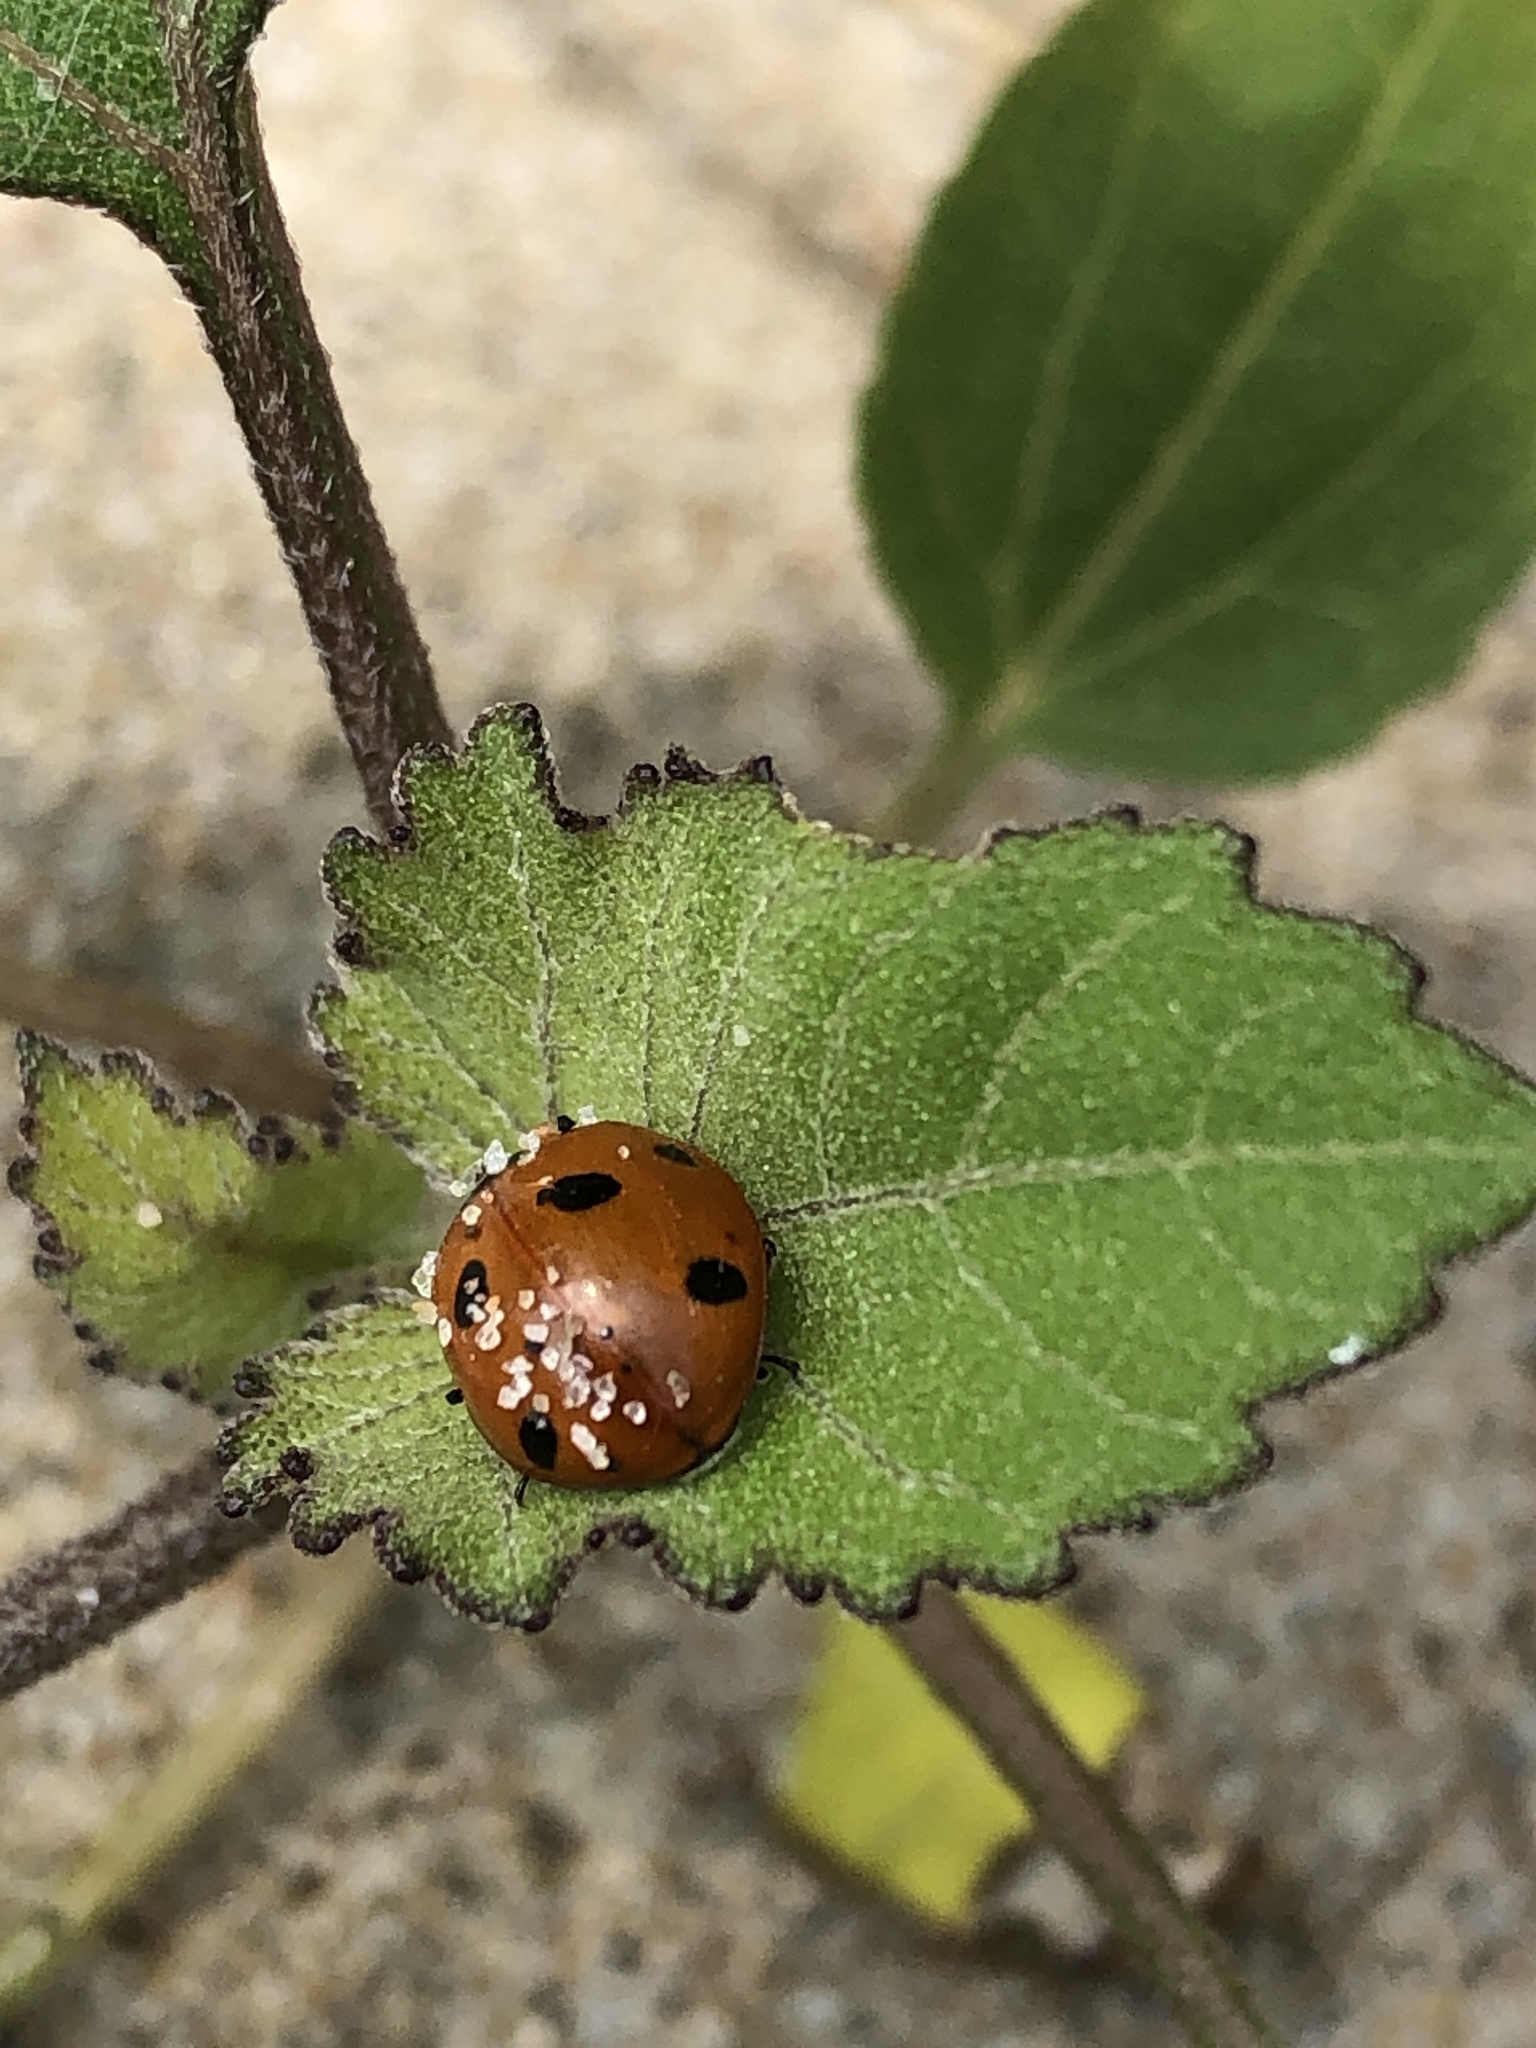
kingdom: Animalia
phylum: Arthropoda
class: Insecta
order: Coleoptera
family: Coccinellidae
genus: Coccinella
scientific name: Coccinella septempunctata
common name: Sevenspotted lady beetle
